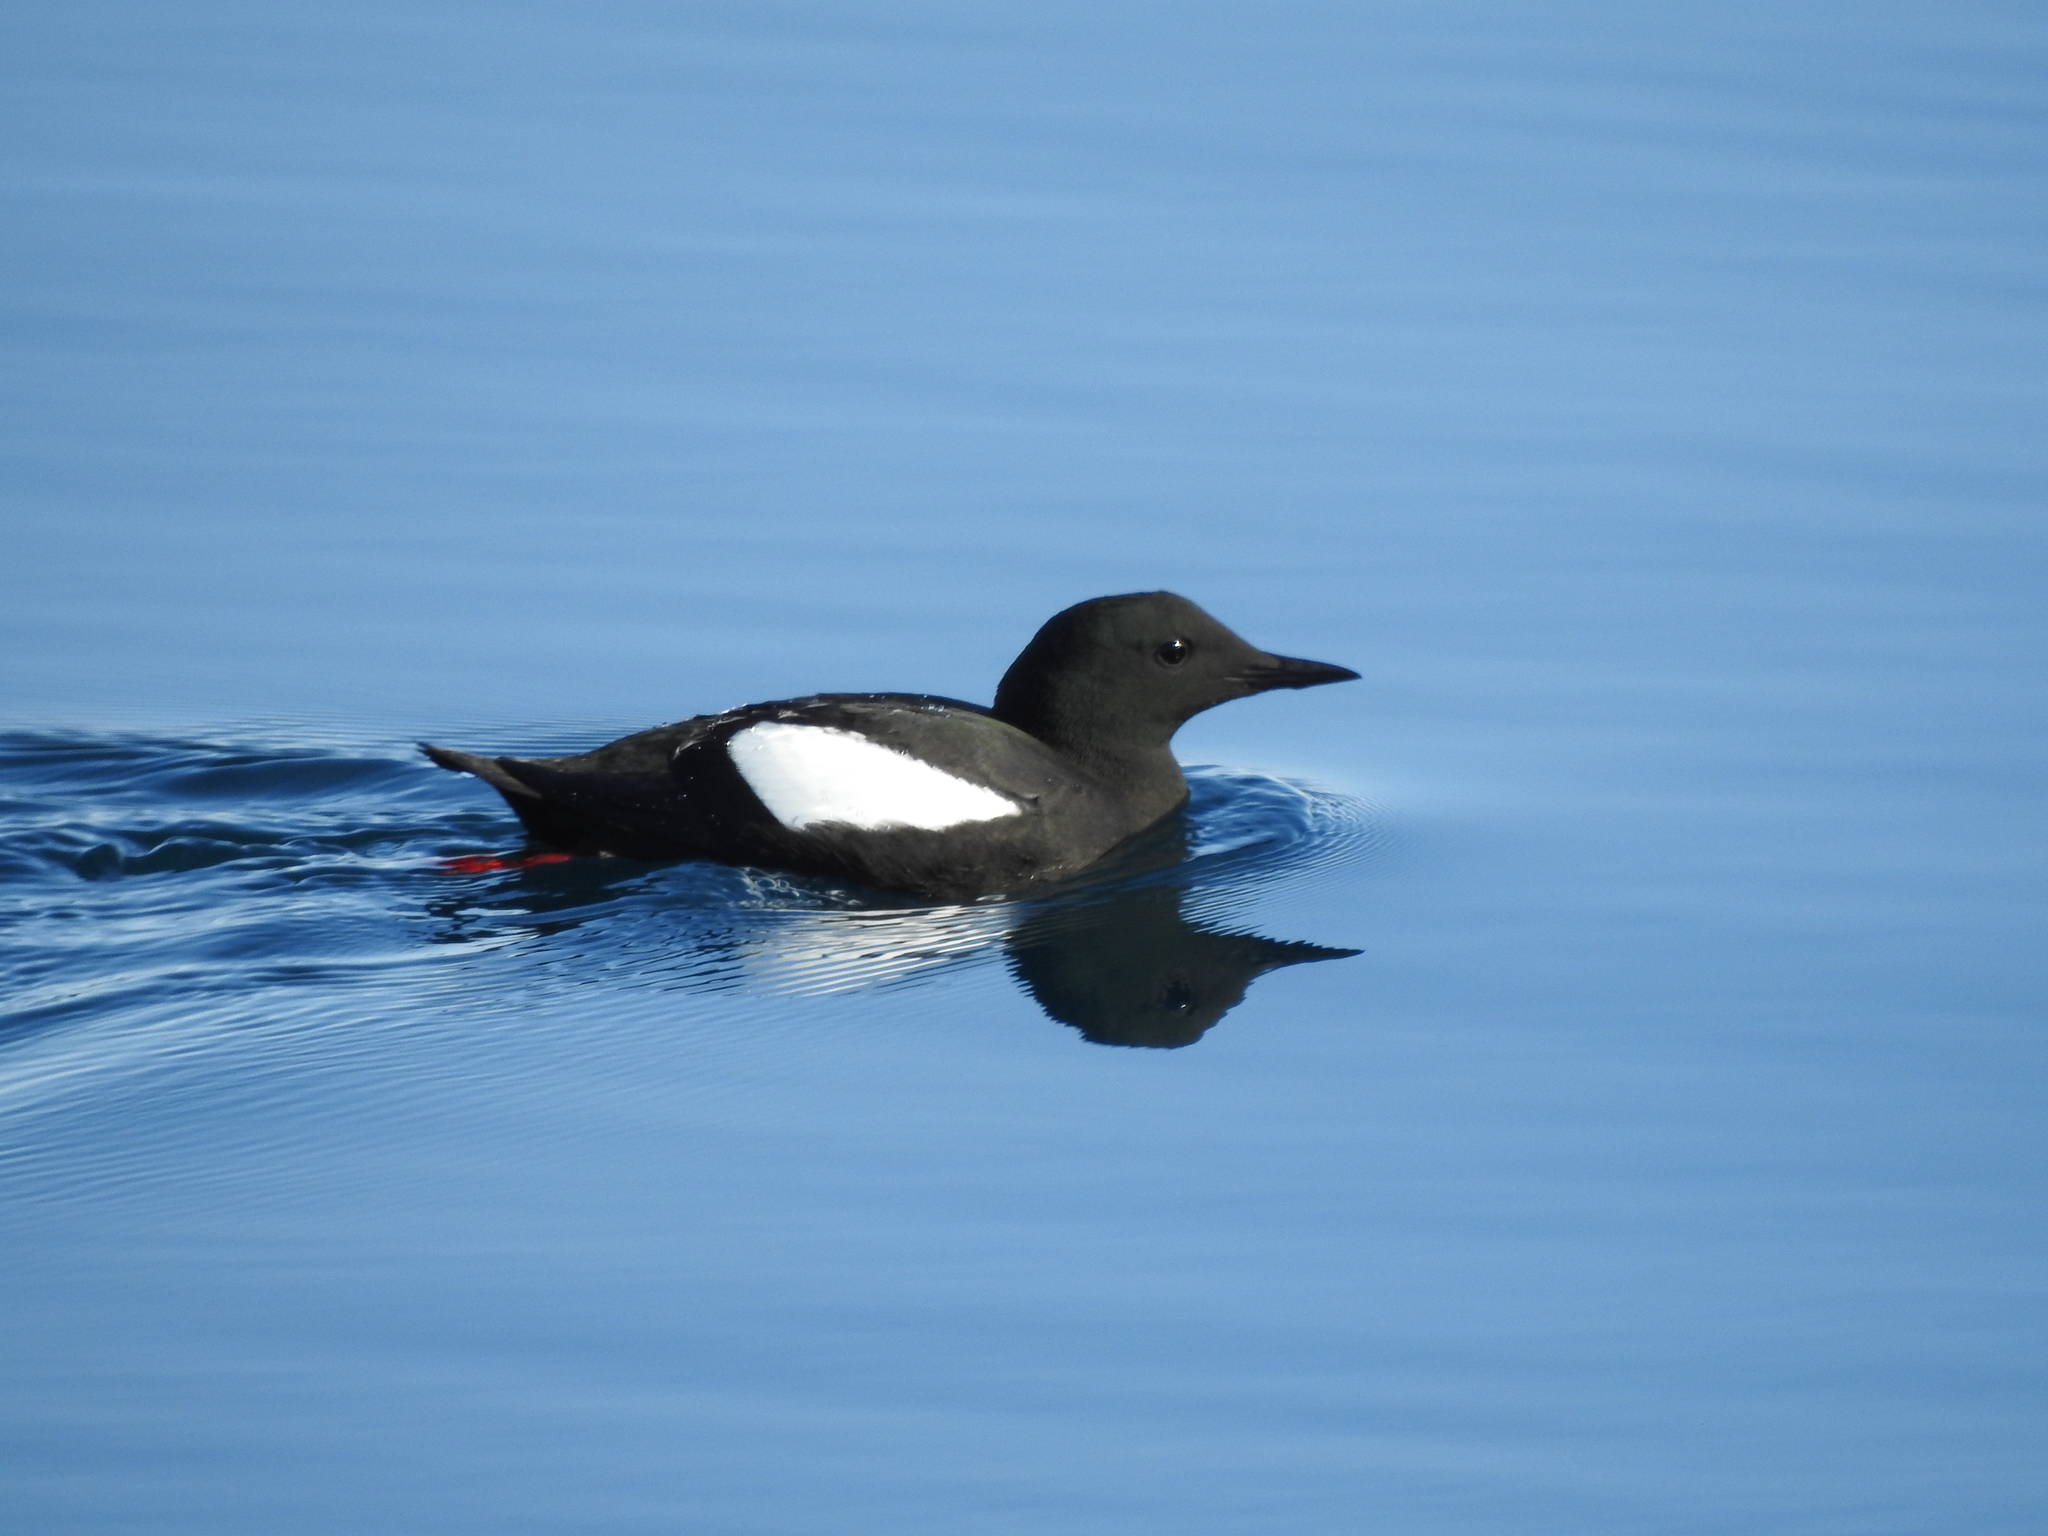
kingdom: Animalia
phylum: Chordata
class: Aves
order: Charadriiformes
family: Alcidae
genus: Cepphus
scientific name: Cepphus grylle
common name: Black guillemot
